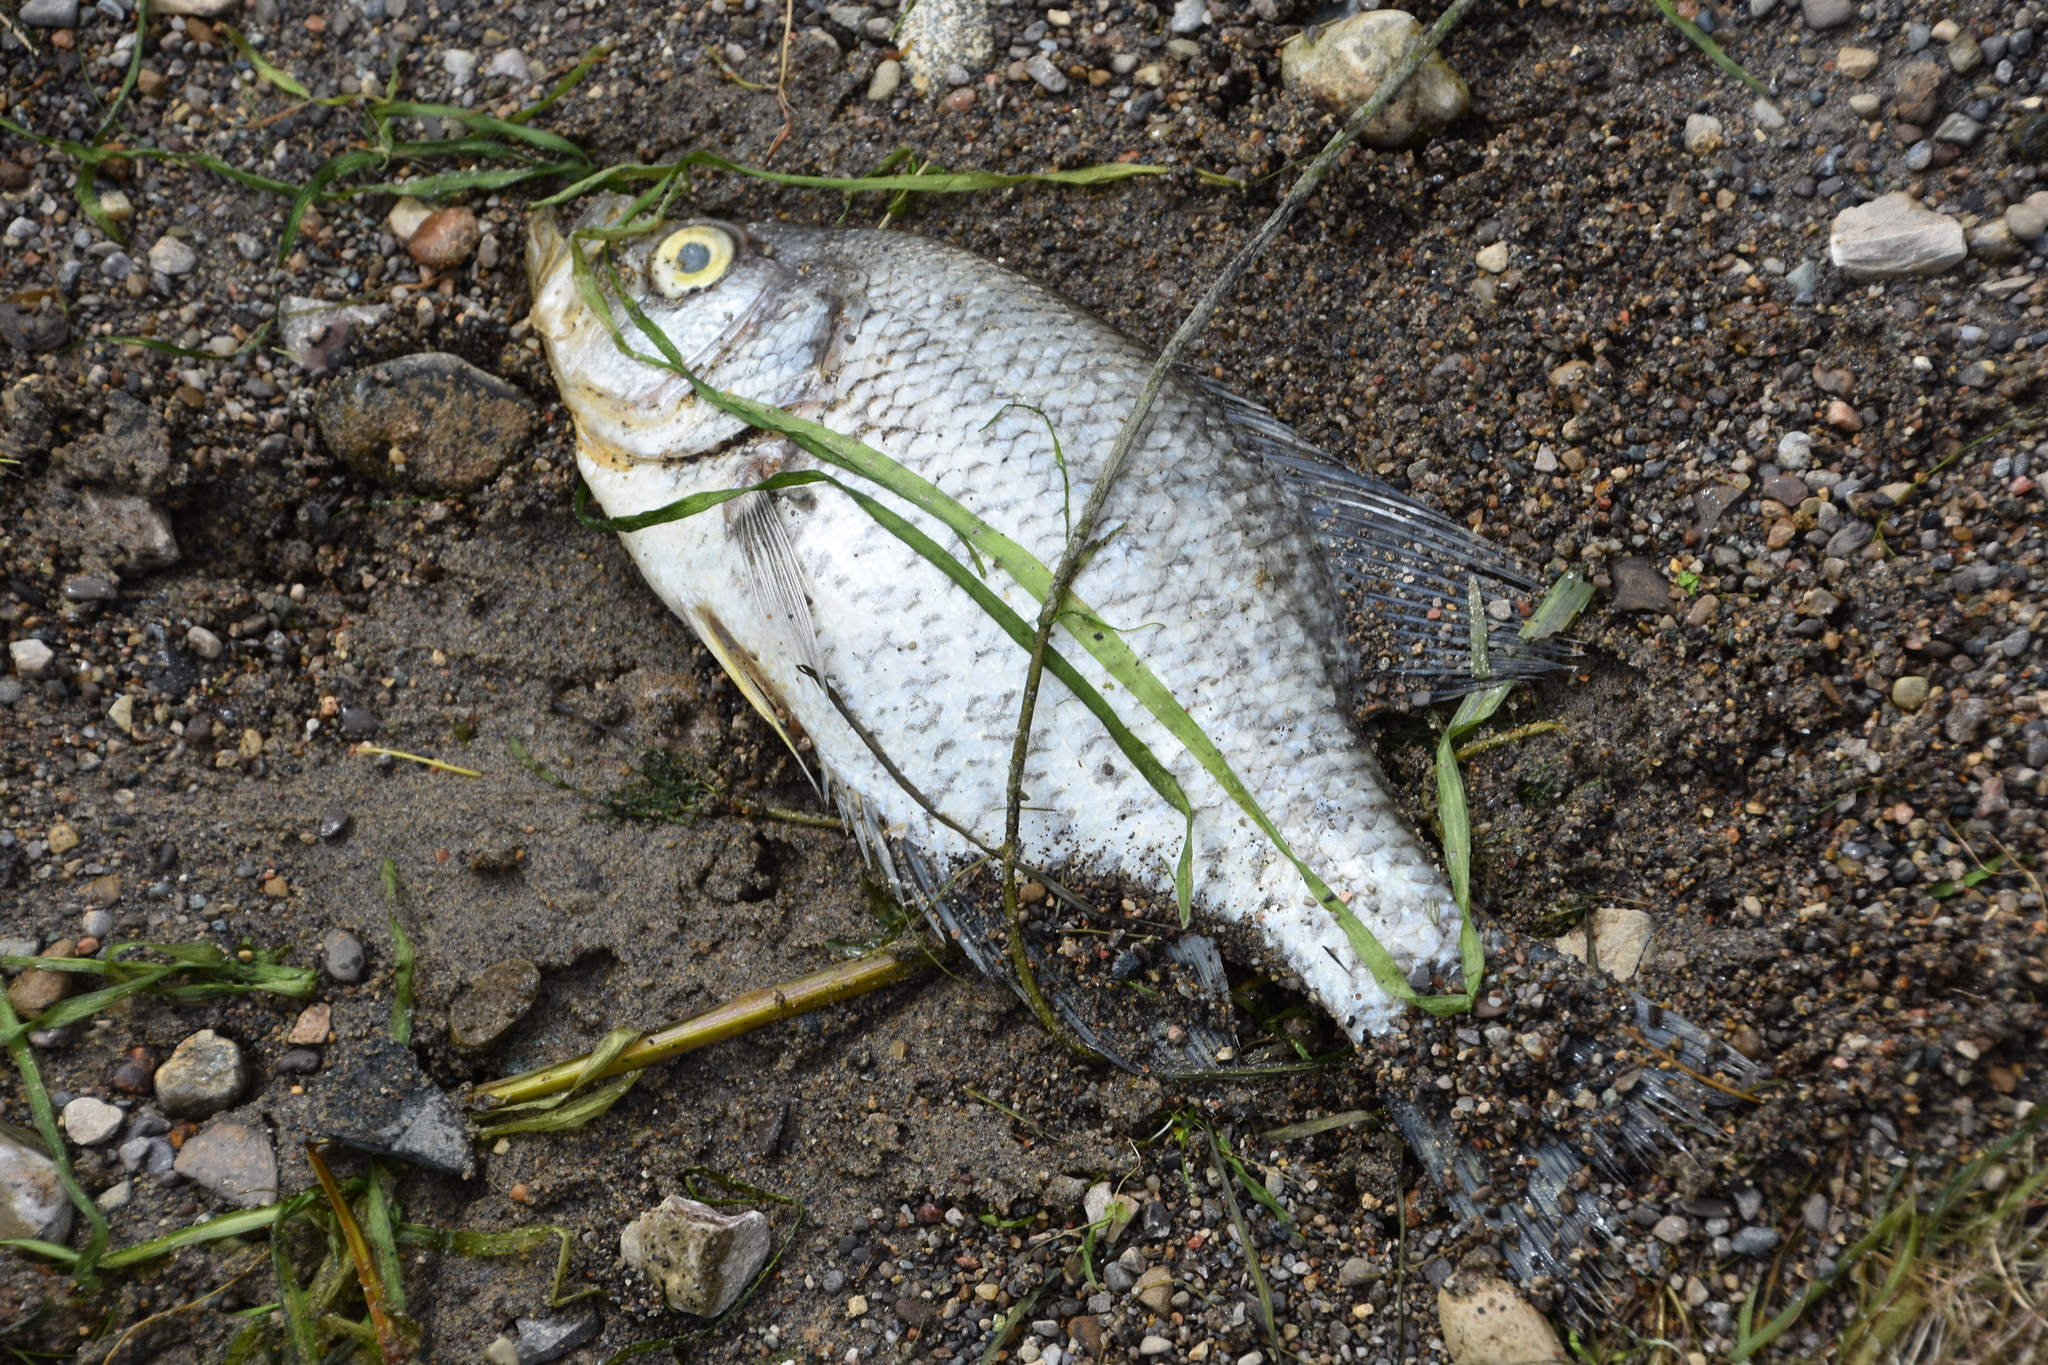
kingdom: Animalia
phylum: Chordata
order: Perciformes
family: Centrarchidae
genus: Pomoxis
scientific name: Pomoxis nigromaculatus
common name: Black crappie
